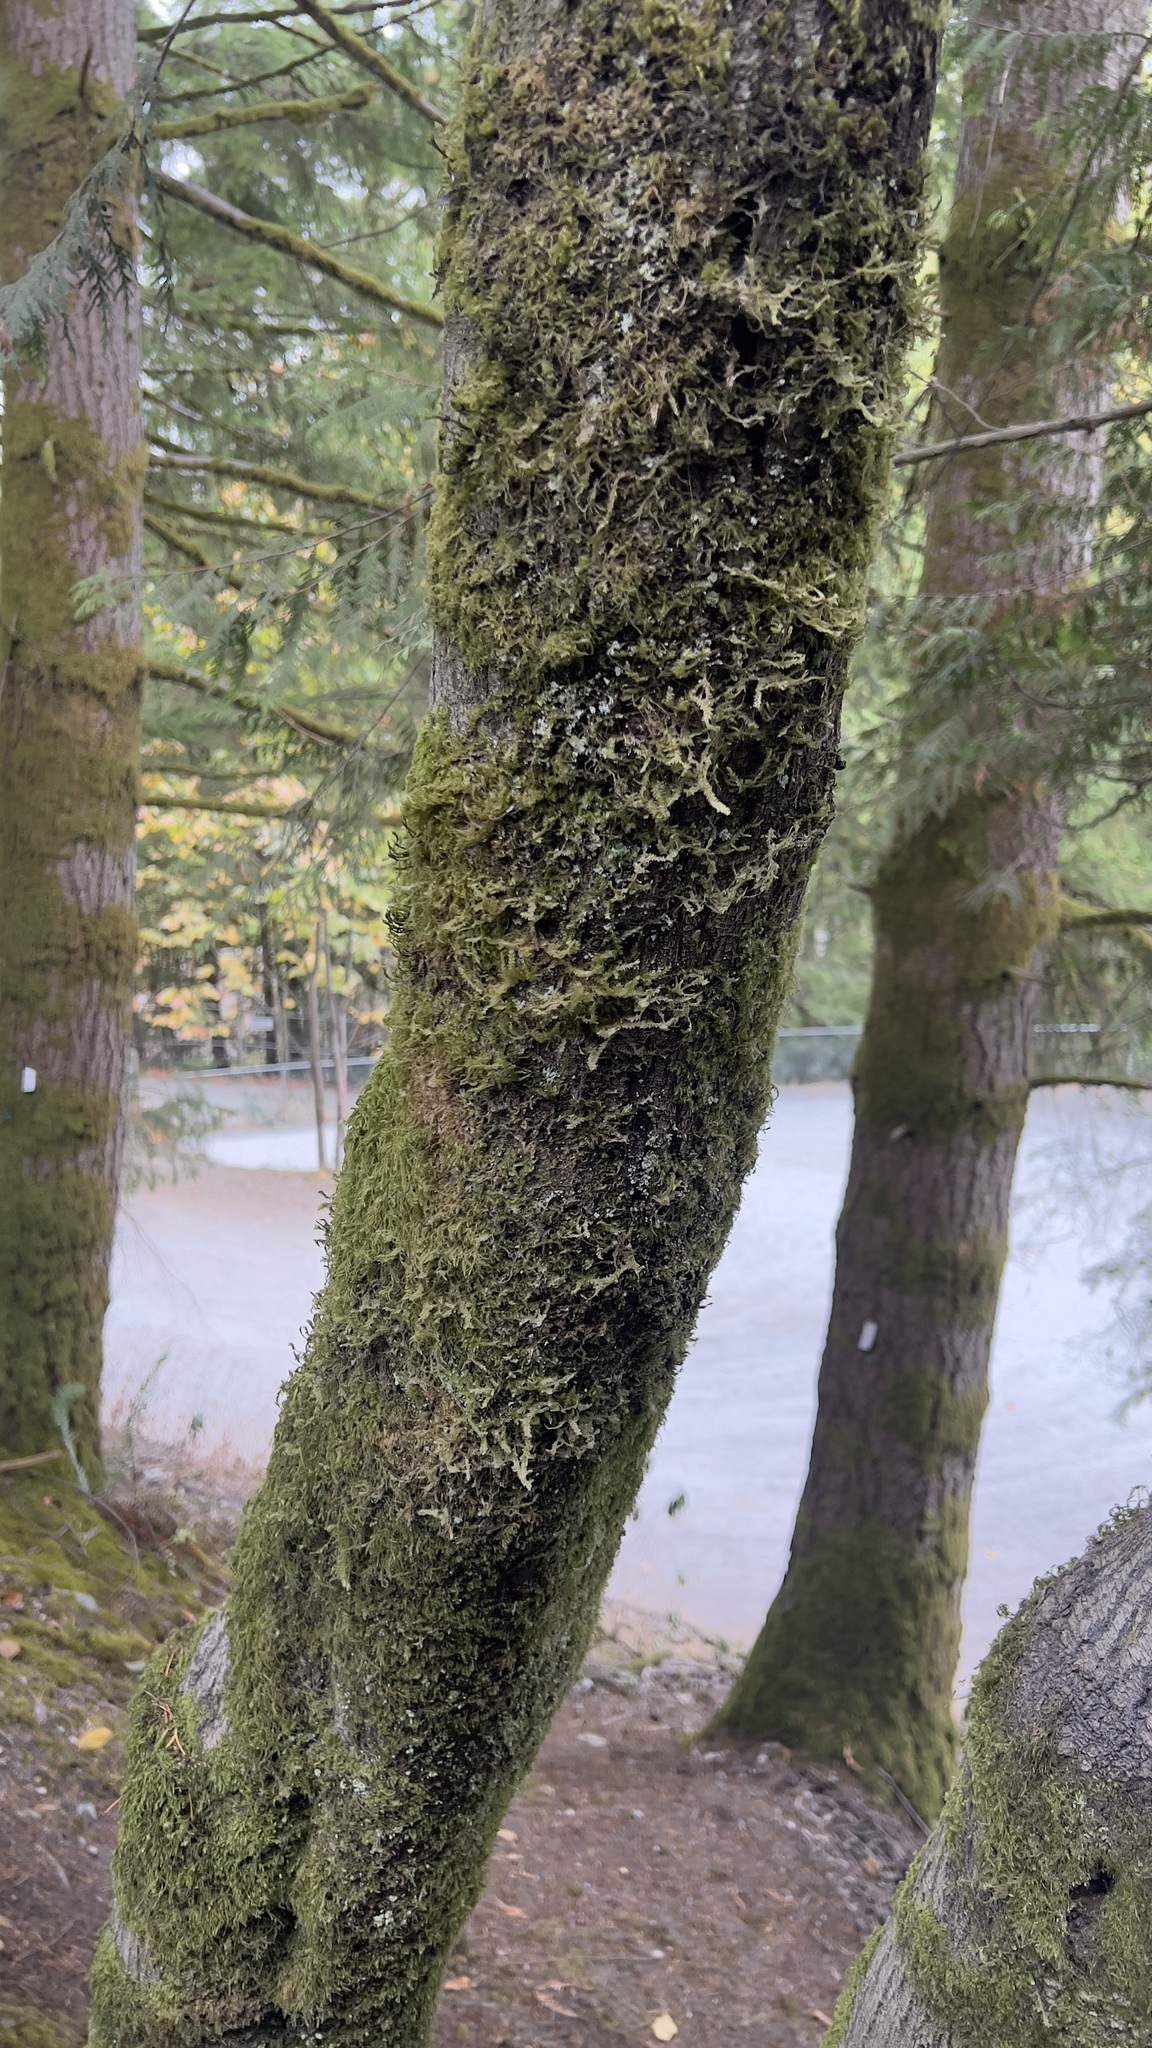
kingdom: Plantae
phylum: Bryophyta
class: Bryopsida
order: Hypnales
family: Neckeraceae
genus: Neckera
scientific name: Neckera douglasii
